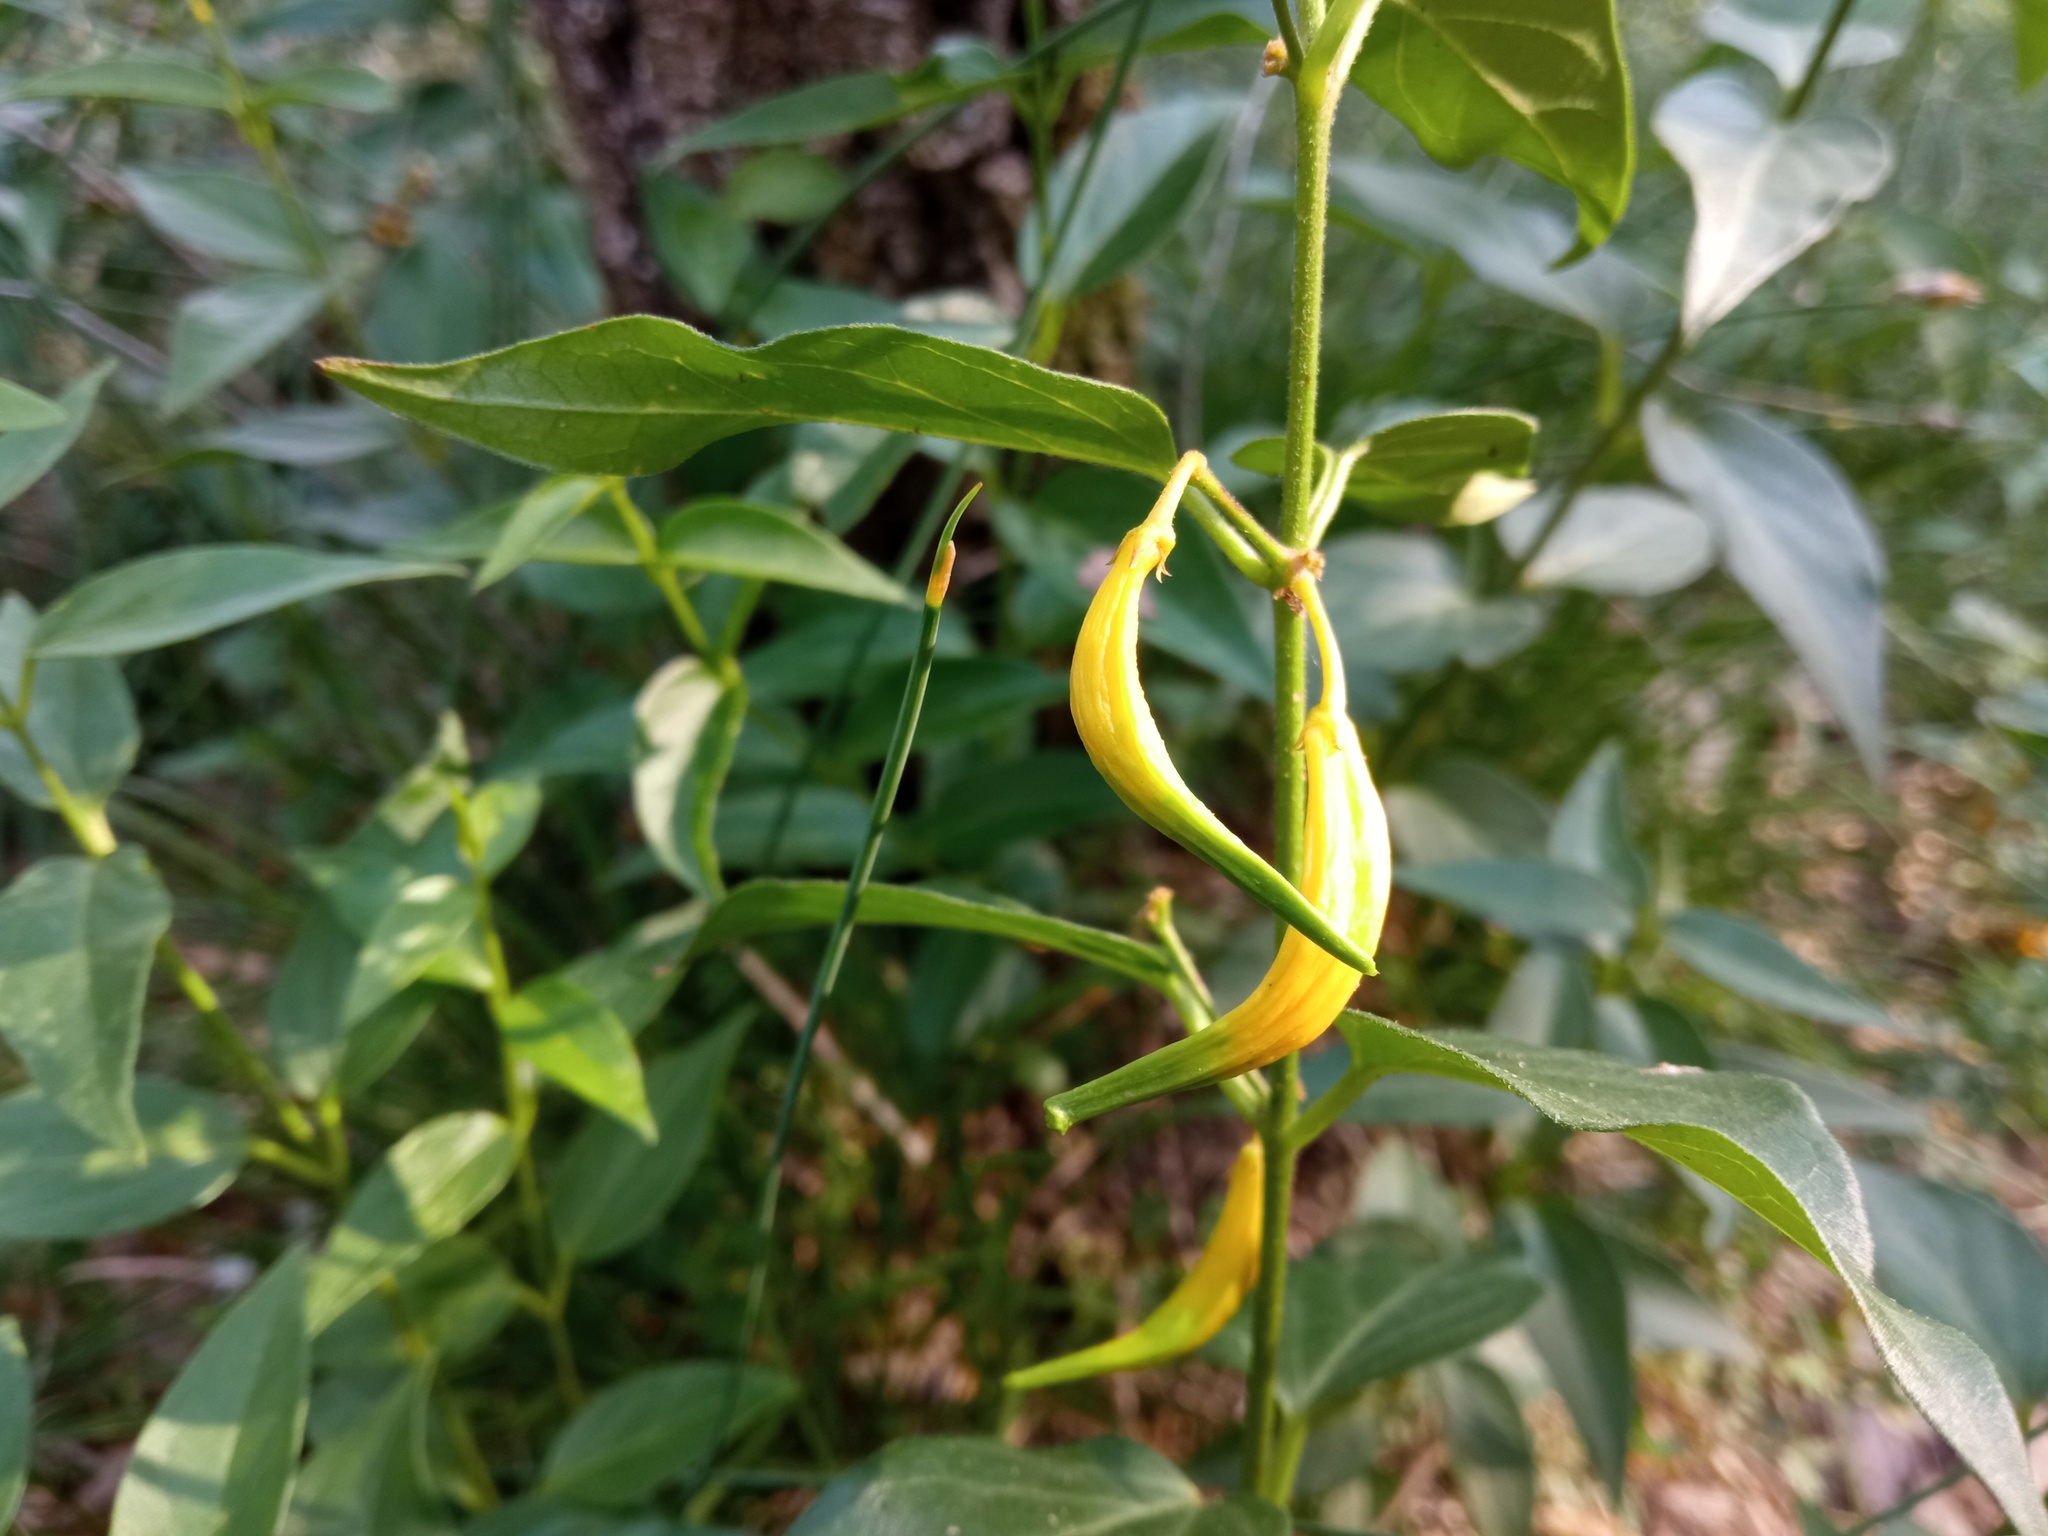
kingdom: Plantae
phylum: Tracheophyta
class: Magnoliopsida
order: Gentianales
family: Apocynaceae
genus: Vincetoxicum
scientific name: Vincetoxicum hirundinaria
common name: White swallowwort
